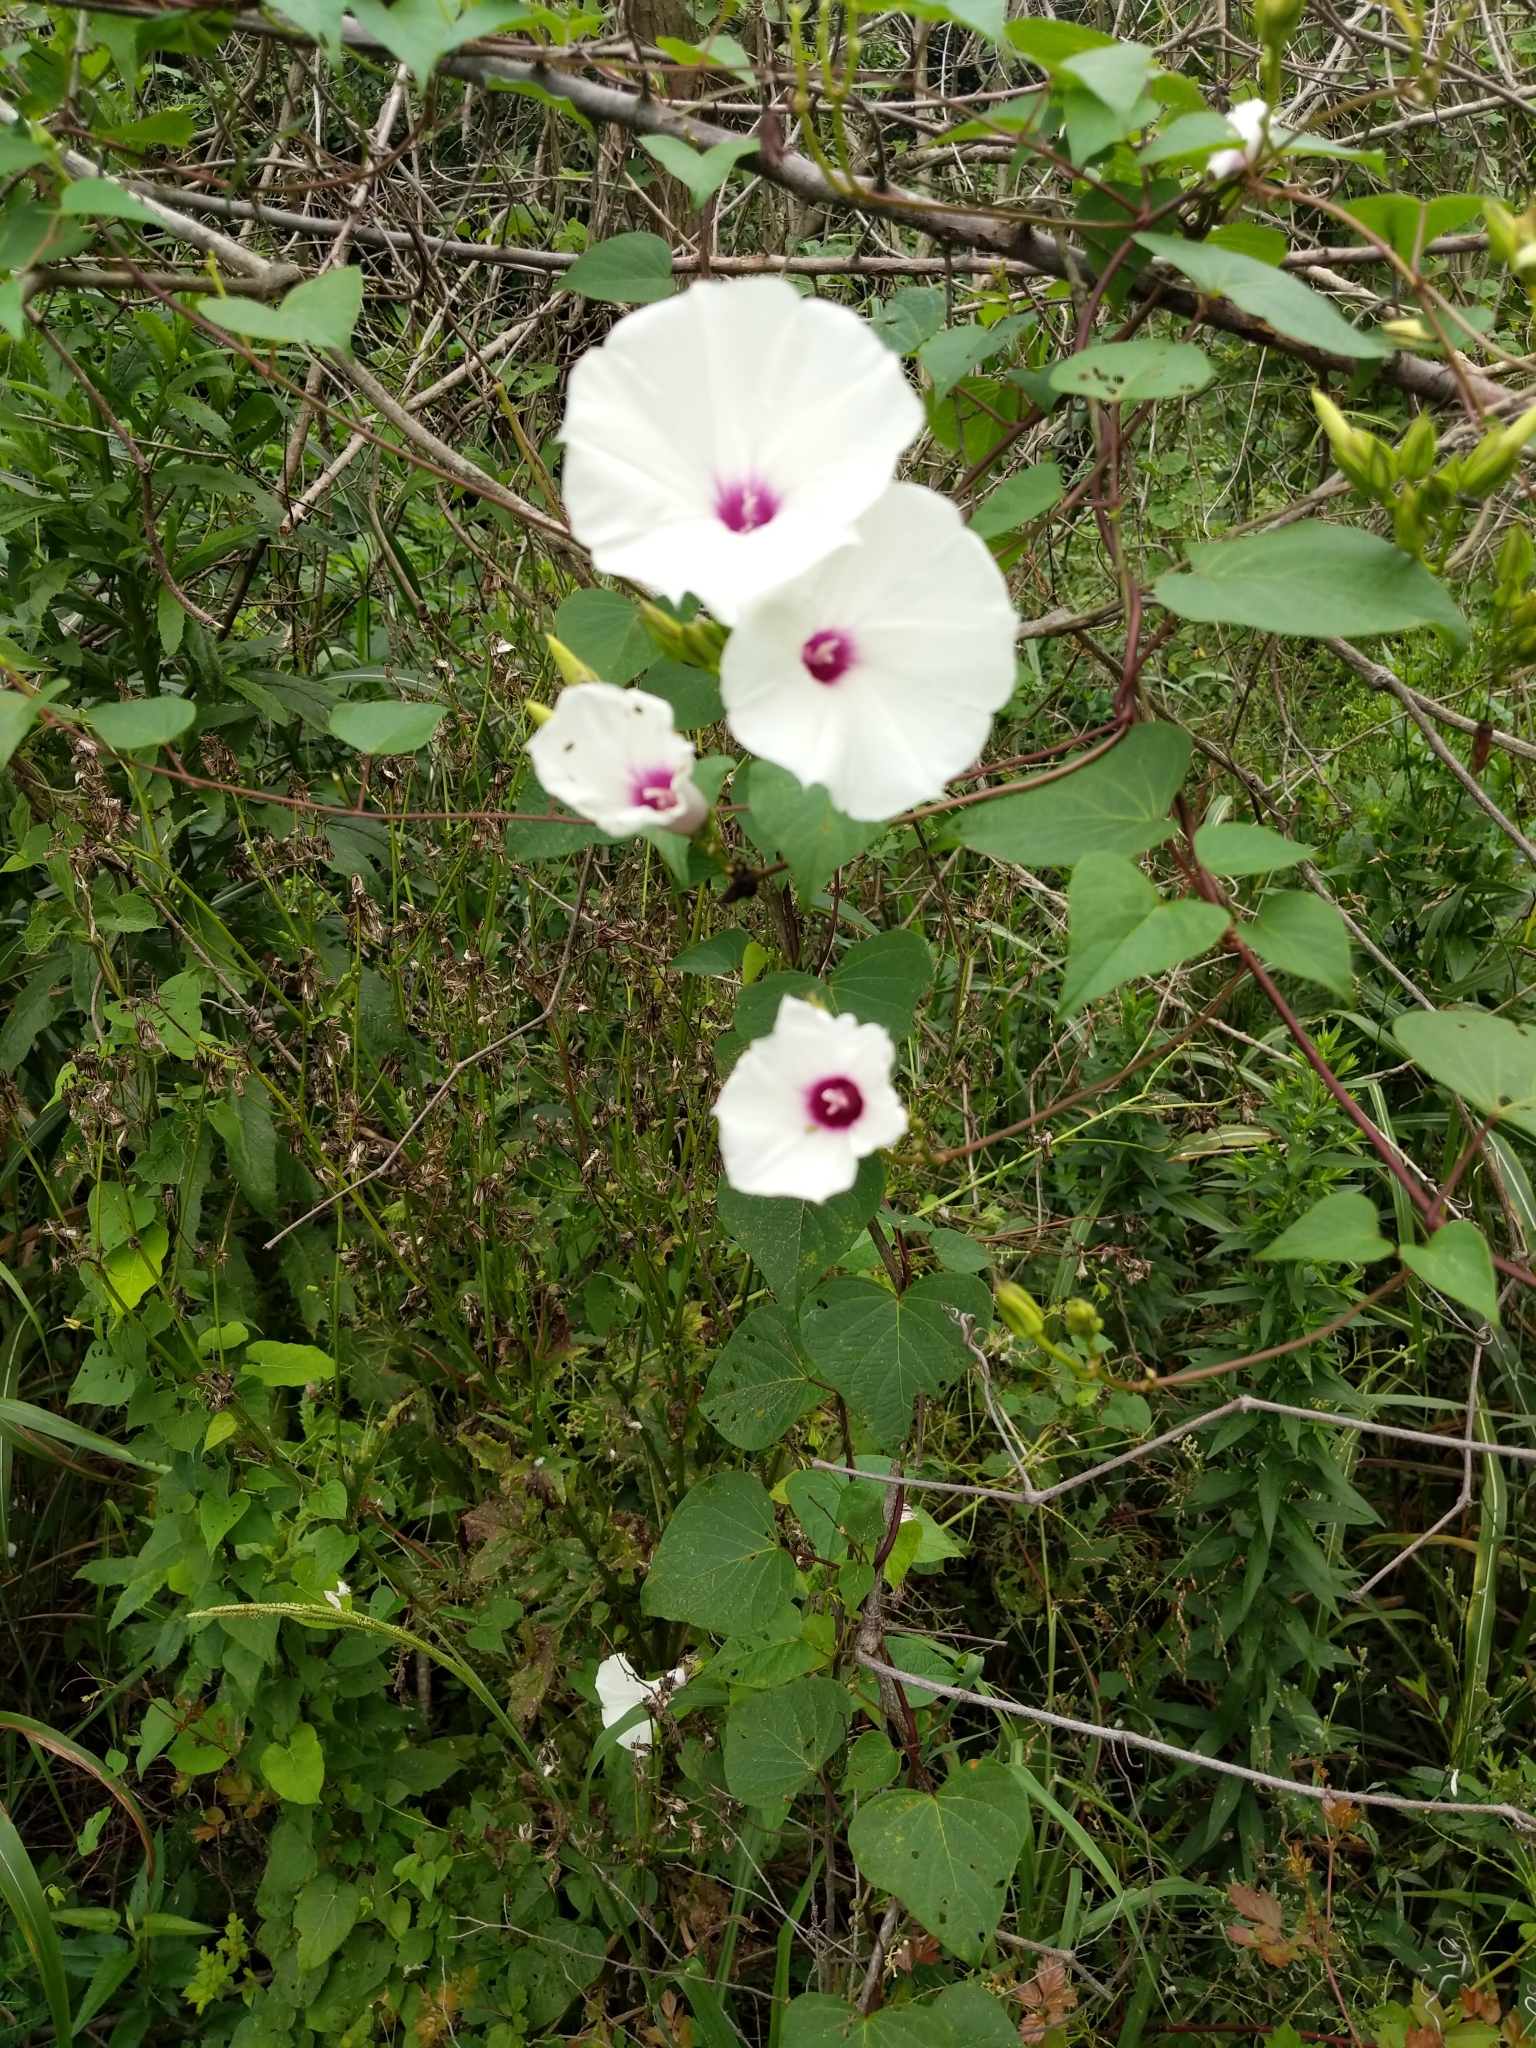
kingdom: Plantae
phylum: Tracheophyta
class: Magnoliopsida
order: Solanales
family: Convolvulaceae
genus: Ipomoea
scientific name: Ipomoea pandurata
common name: Man-of-the-earth
